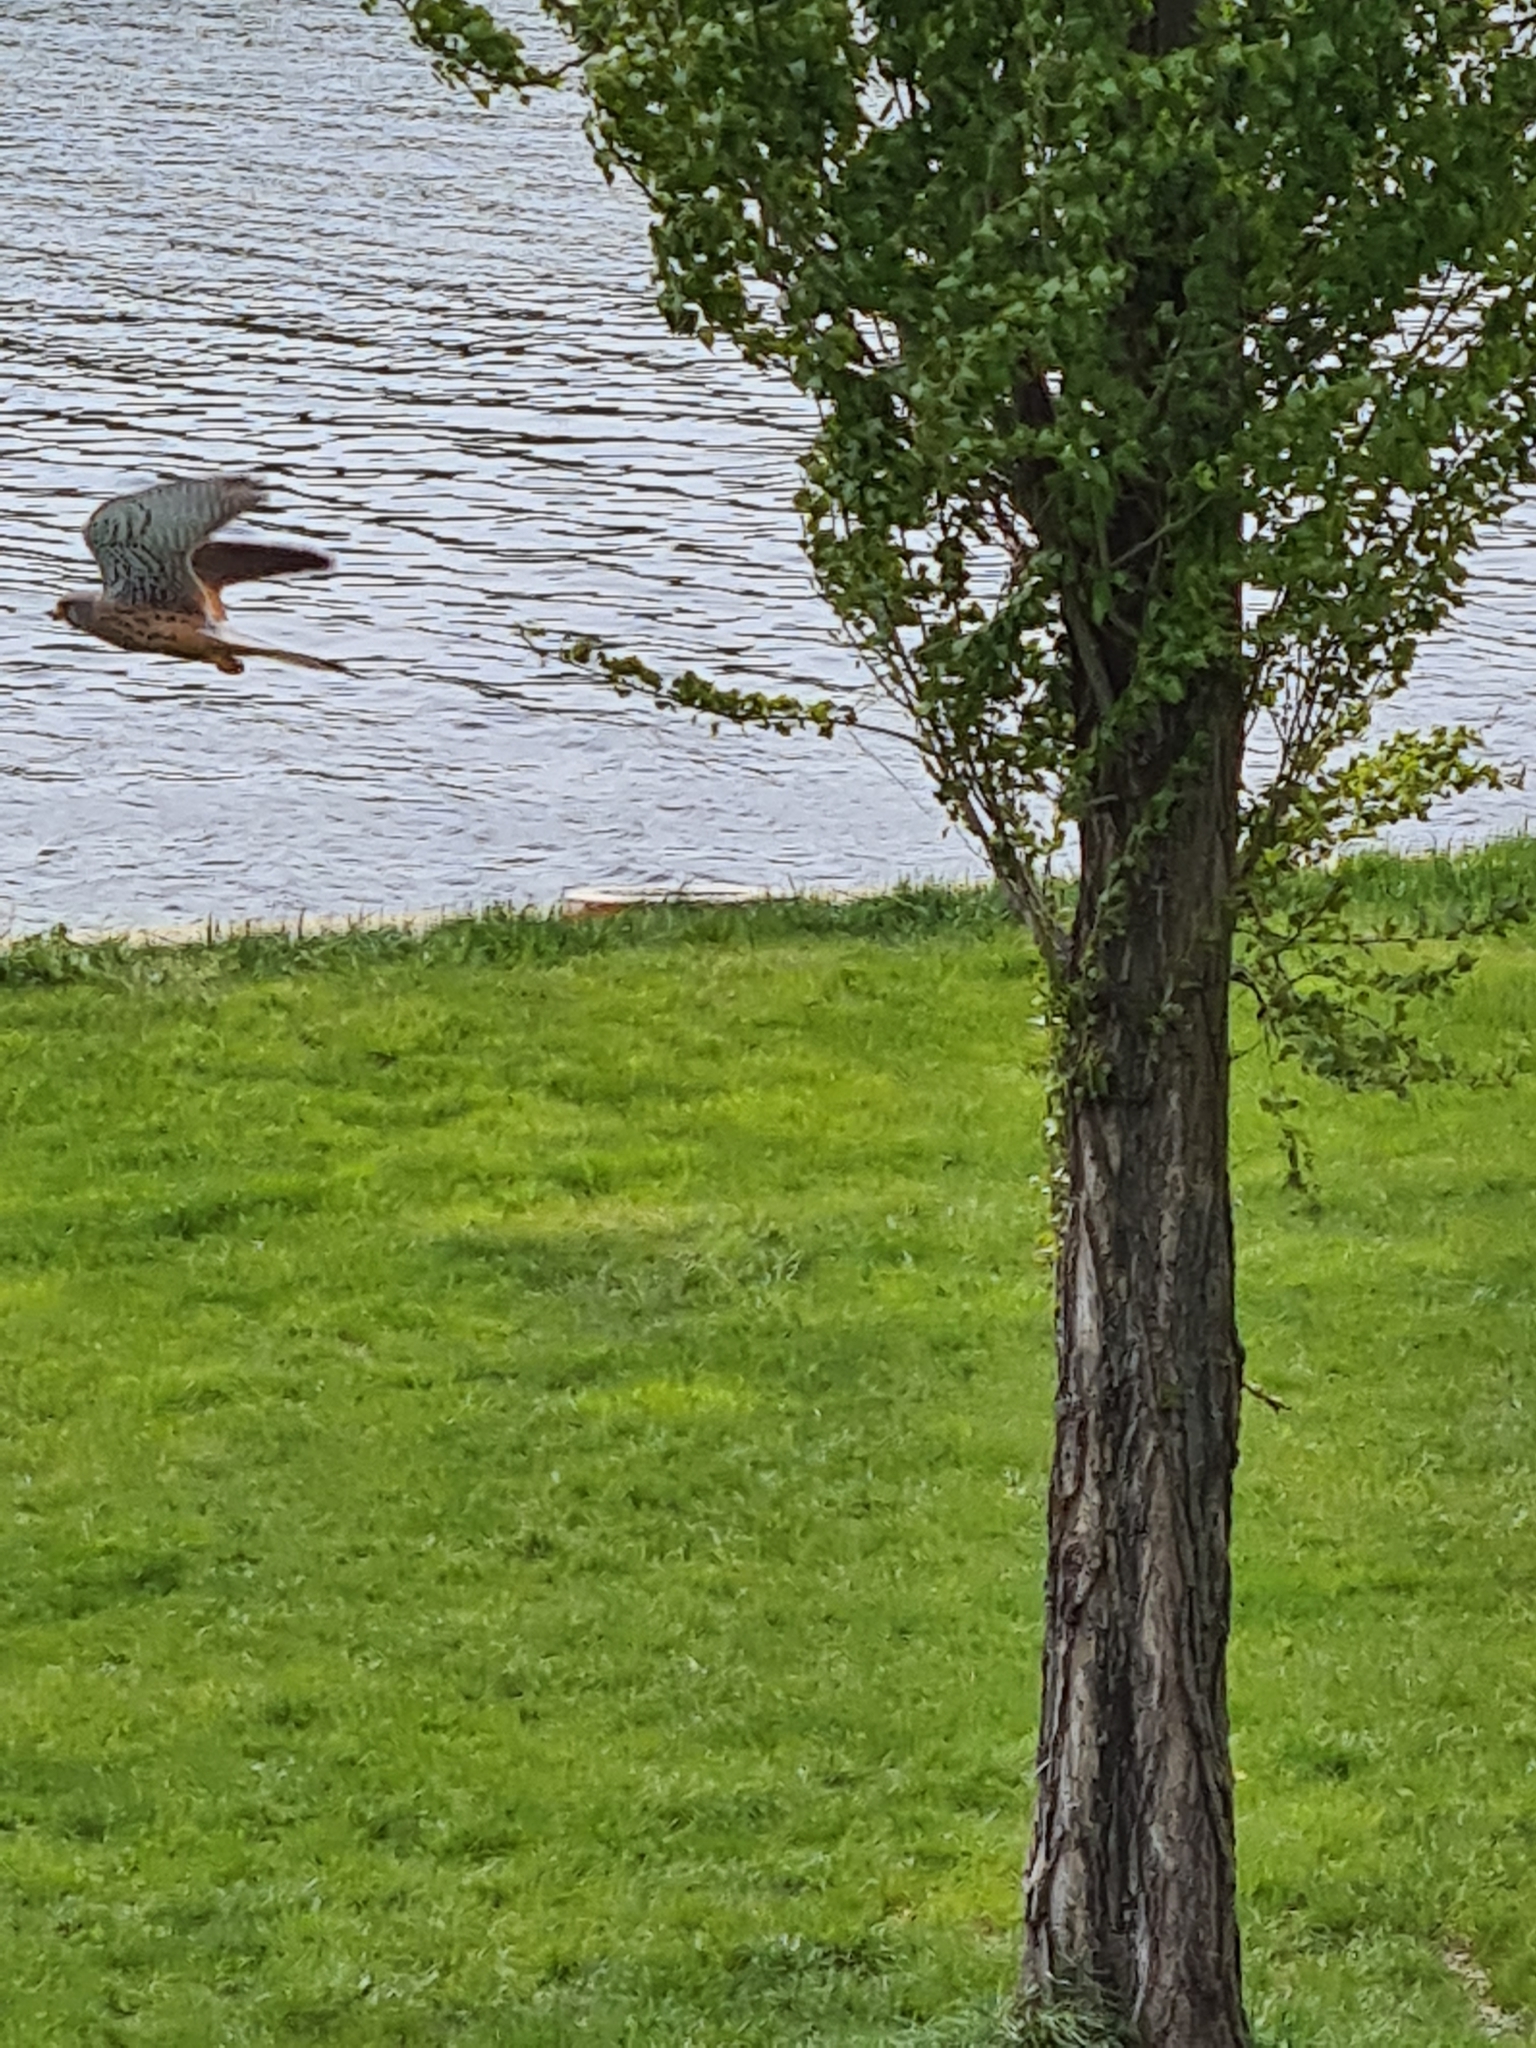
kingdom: Animalia
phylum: Chordata
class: Aves
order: Falconiformes
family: Falconidae
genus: Falco
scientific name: Falco tinnunculus
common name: Common kestrel
